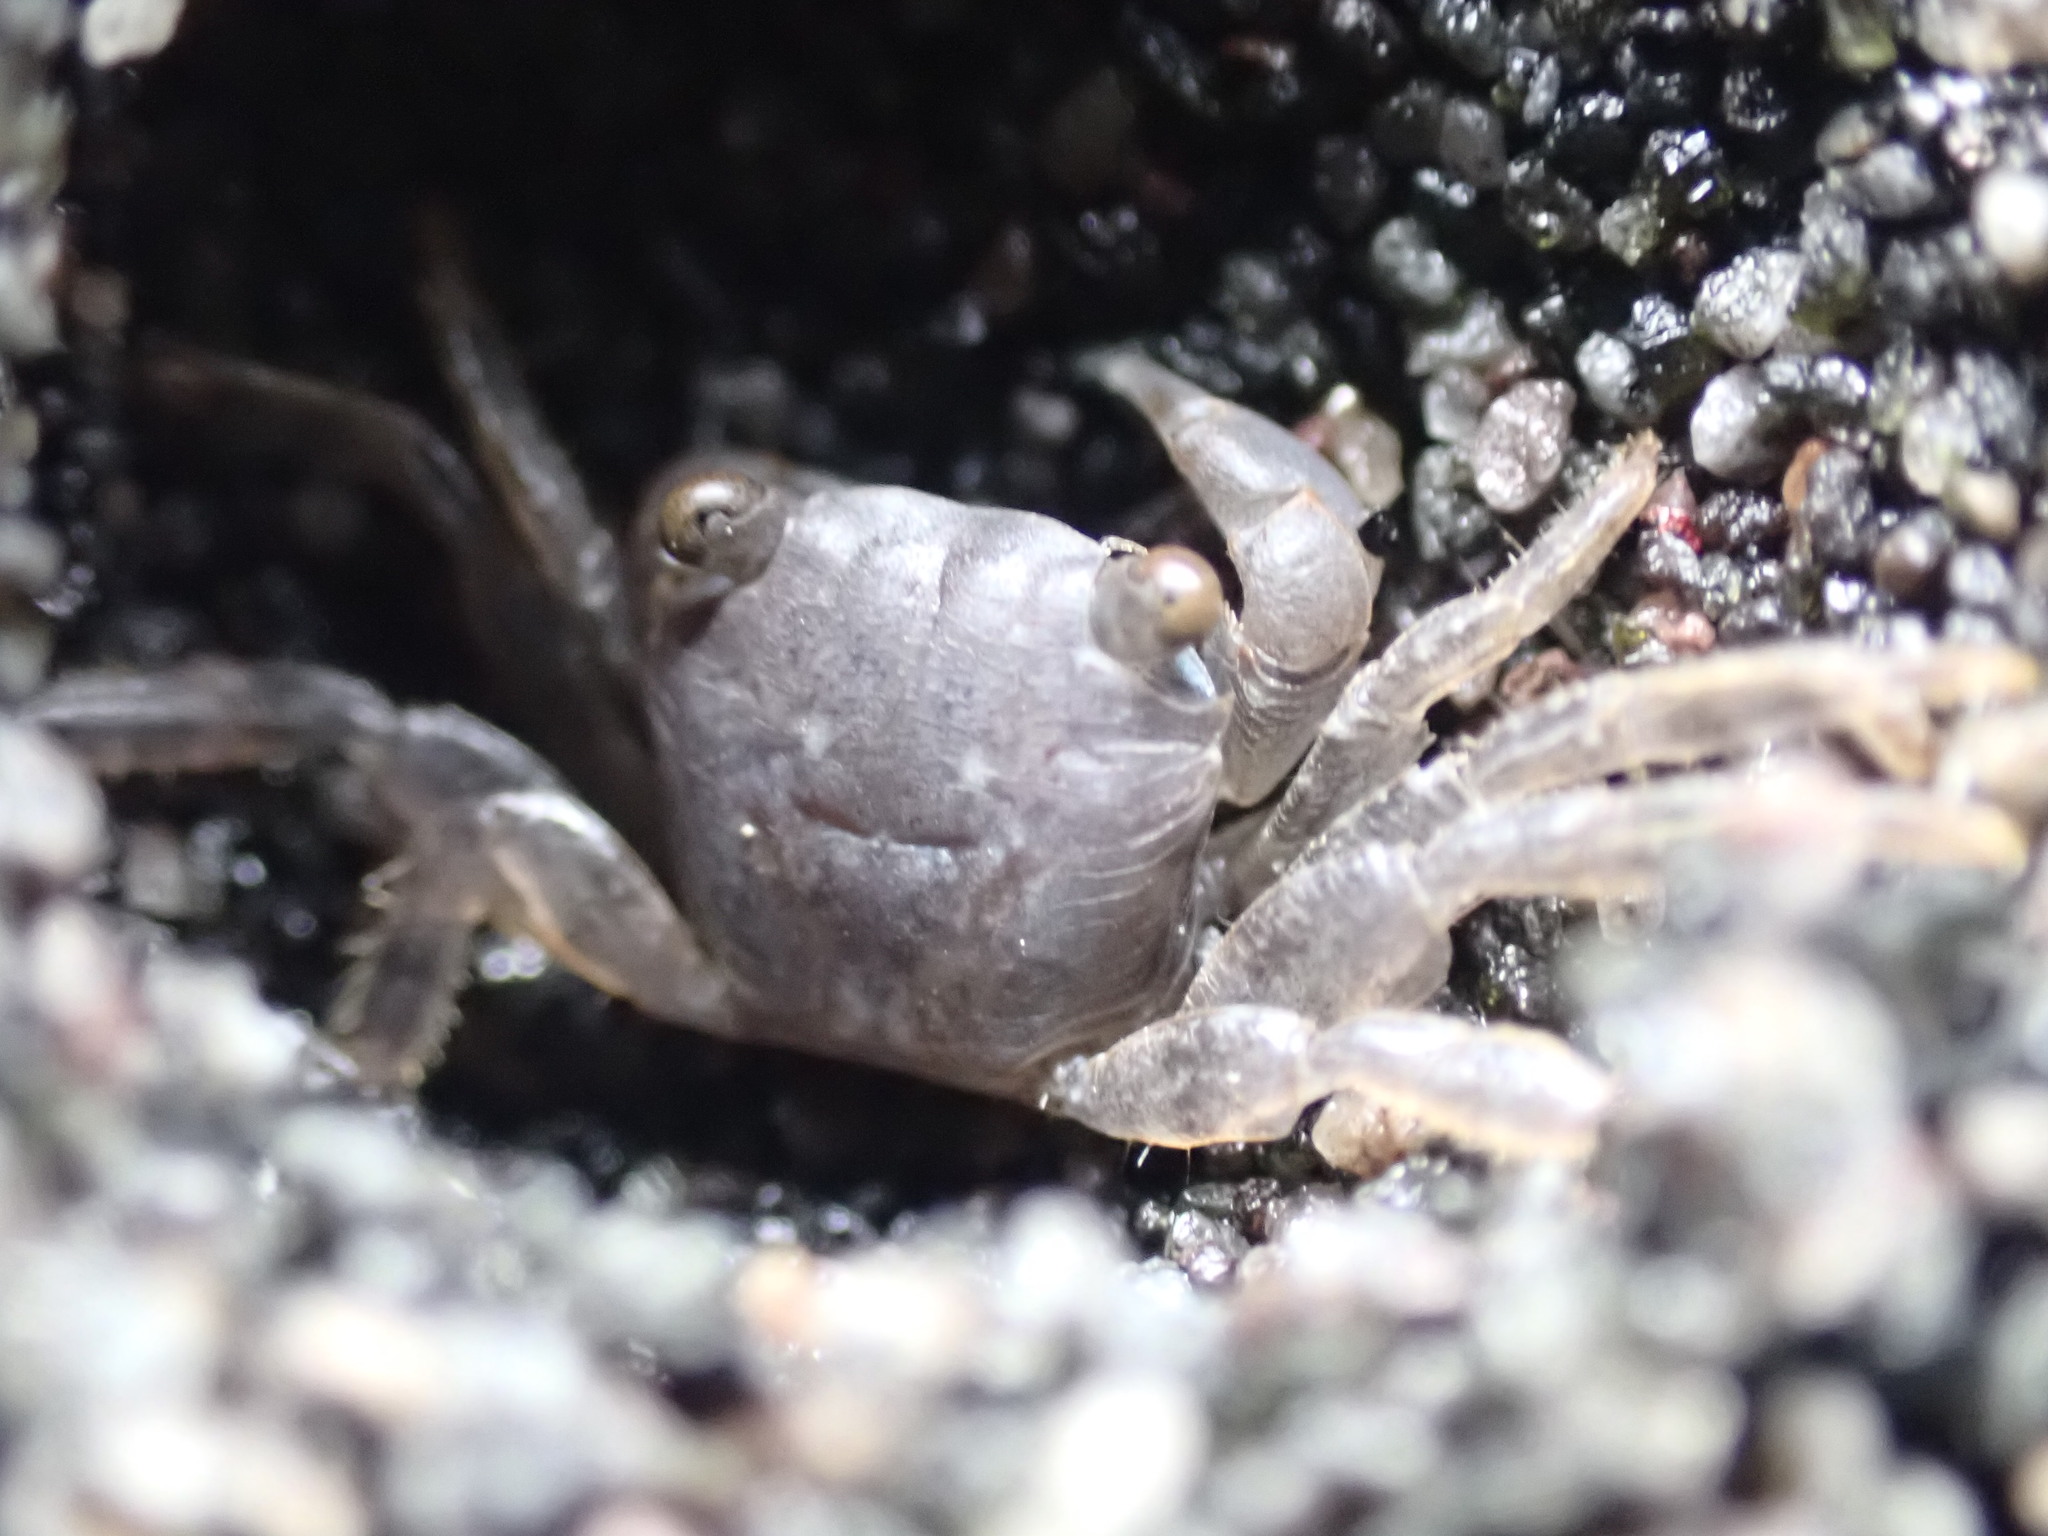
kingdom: Animalia
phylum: Arthropoda
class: Malacostraca
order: Decapoda
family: Grapsidae
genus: Planes
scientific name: Planes minutus
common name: Gulf weed crab
